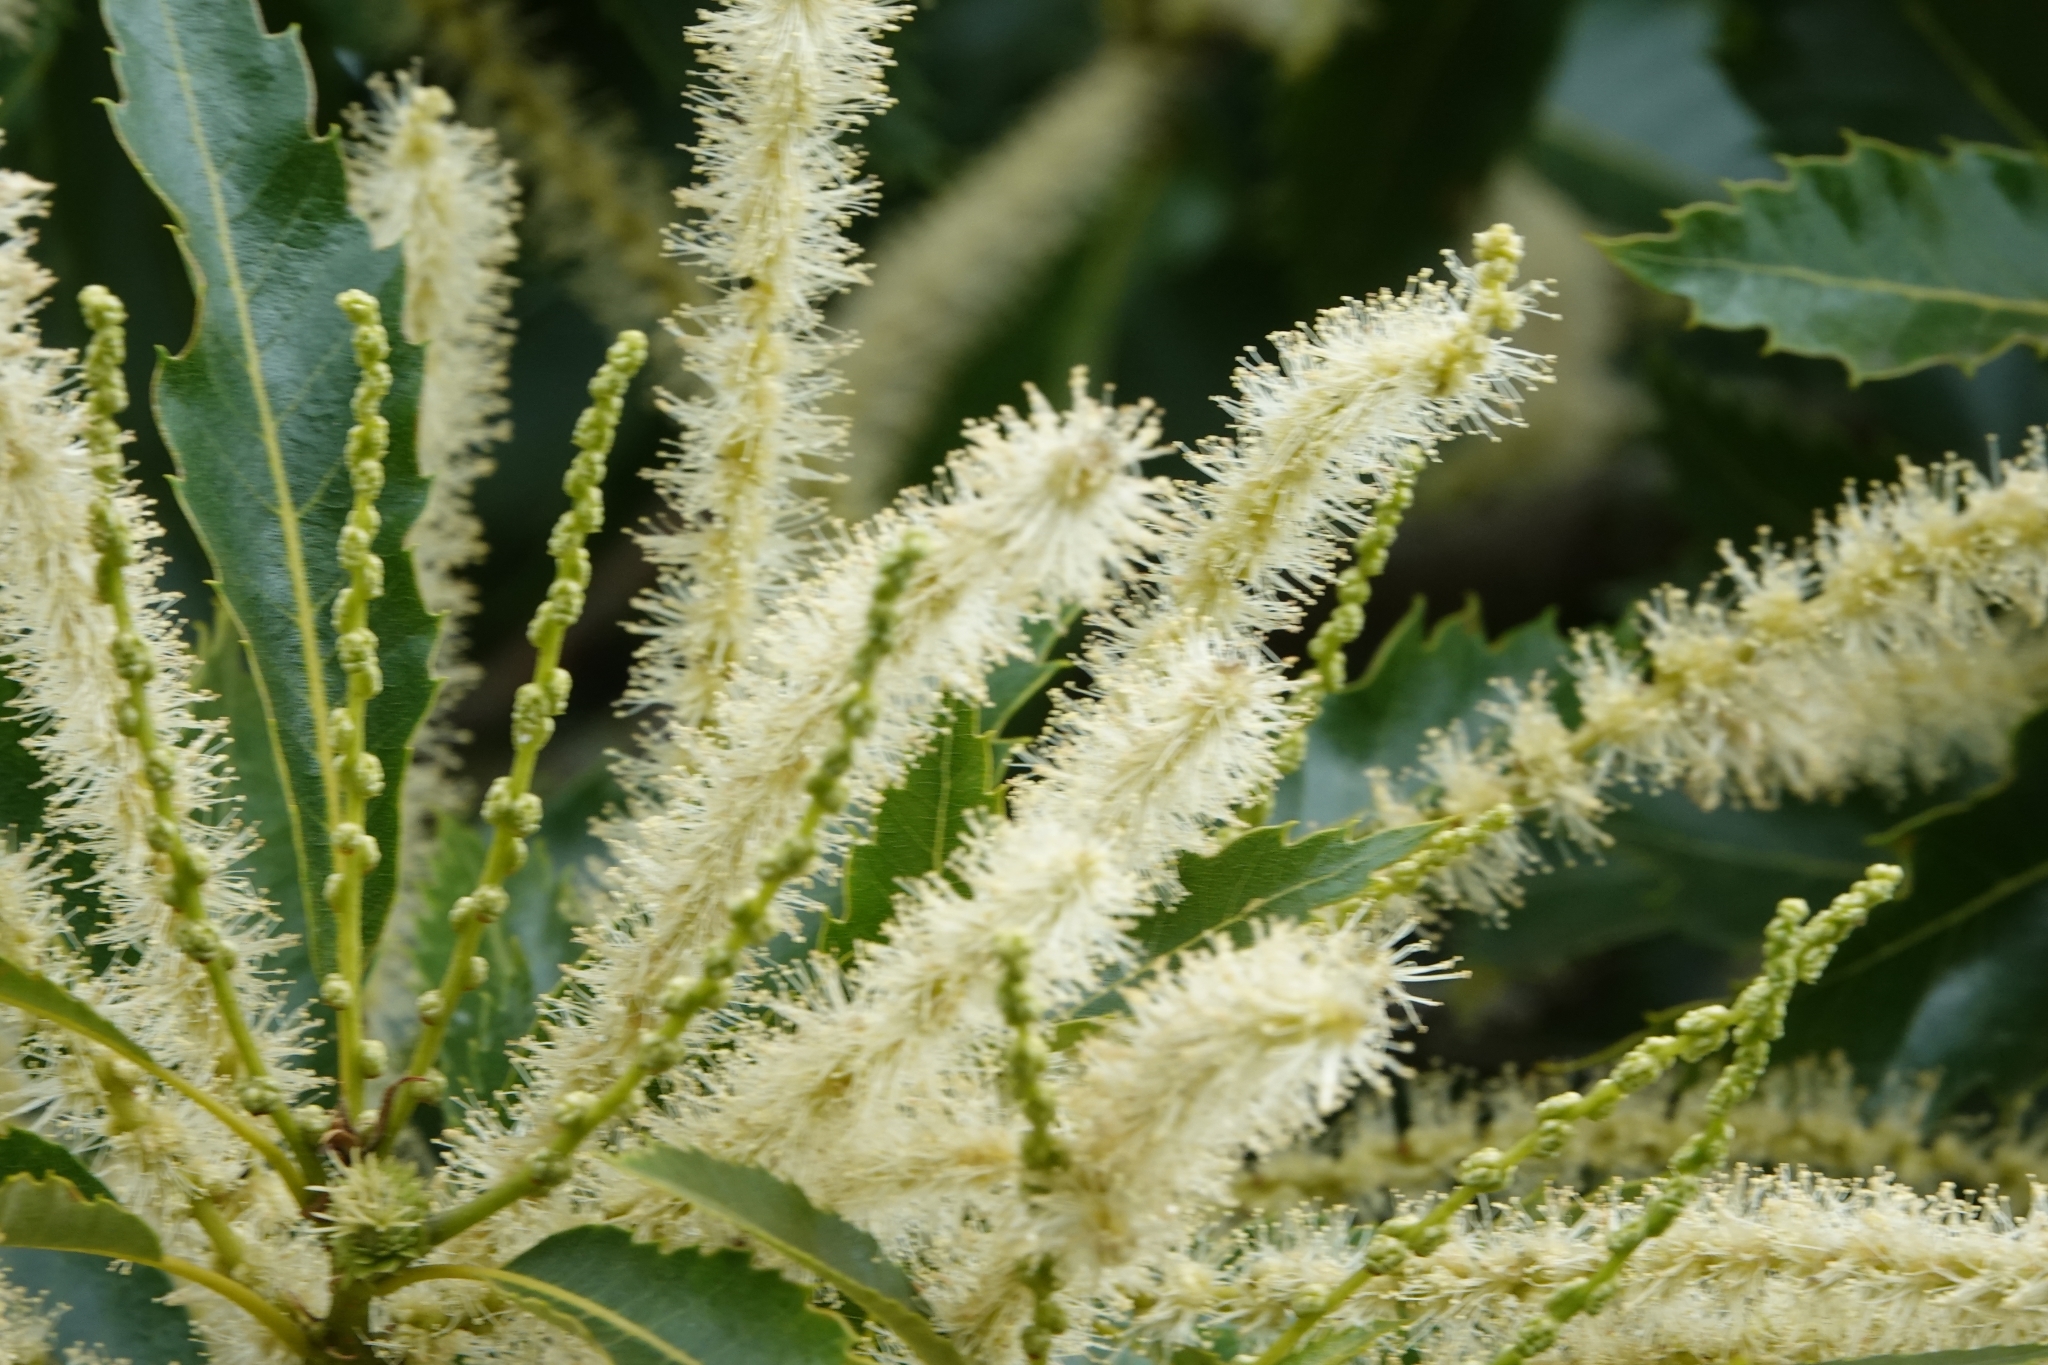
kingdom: Plantae
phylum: Tracheophyta
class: Magnoliopsida
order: Fagales
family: Fagaceae
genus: Castanea
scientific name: Castanea sativa
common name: Sweet chestnut
